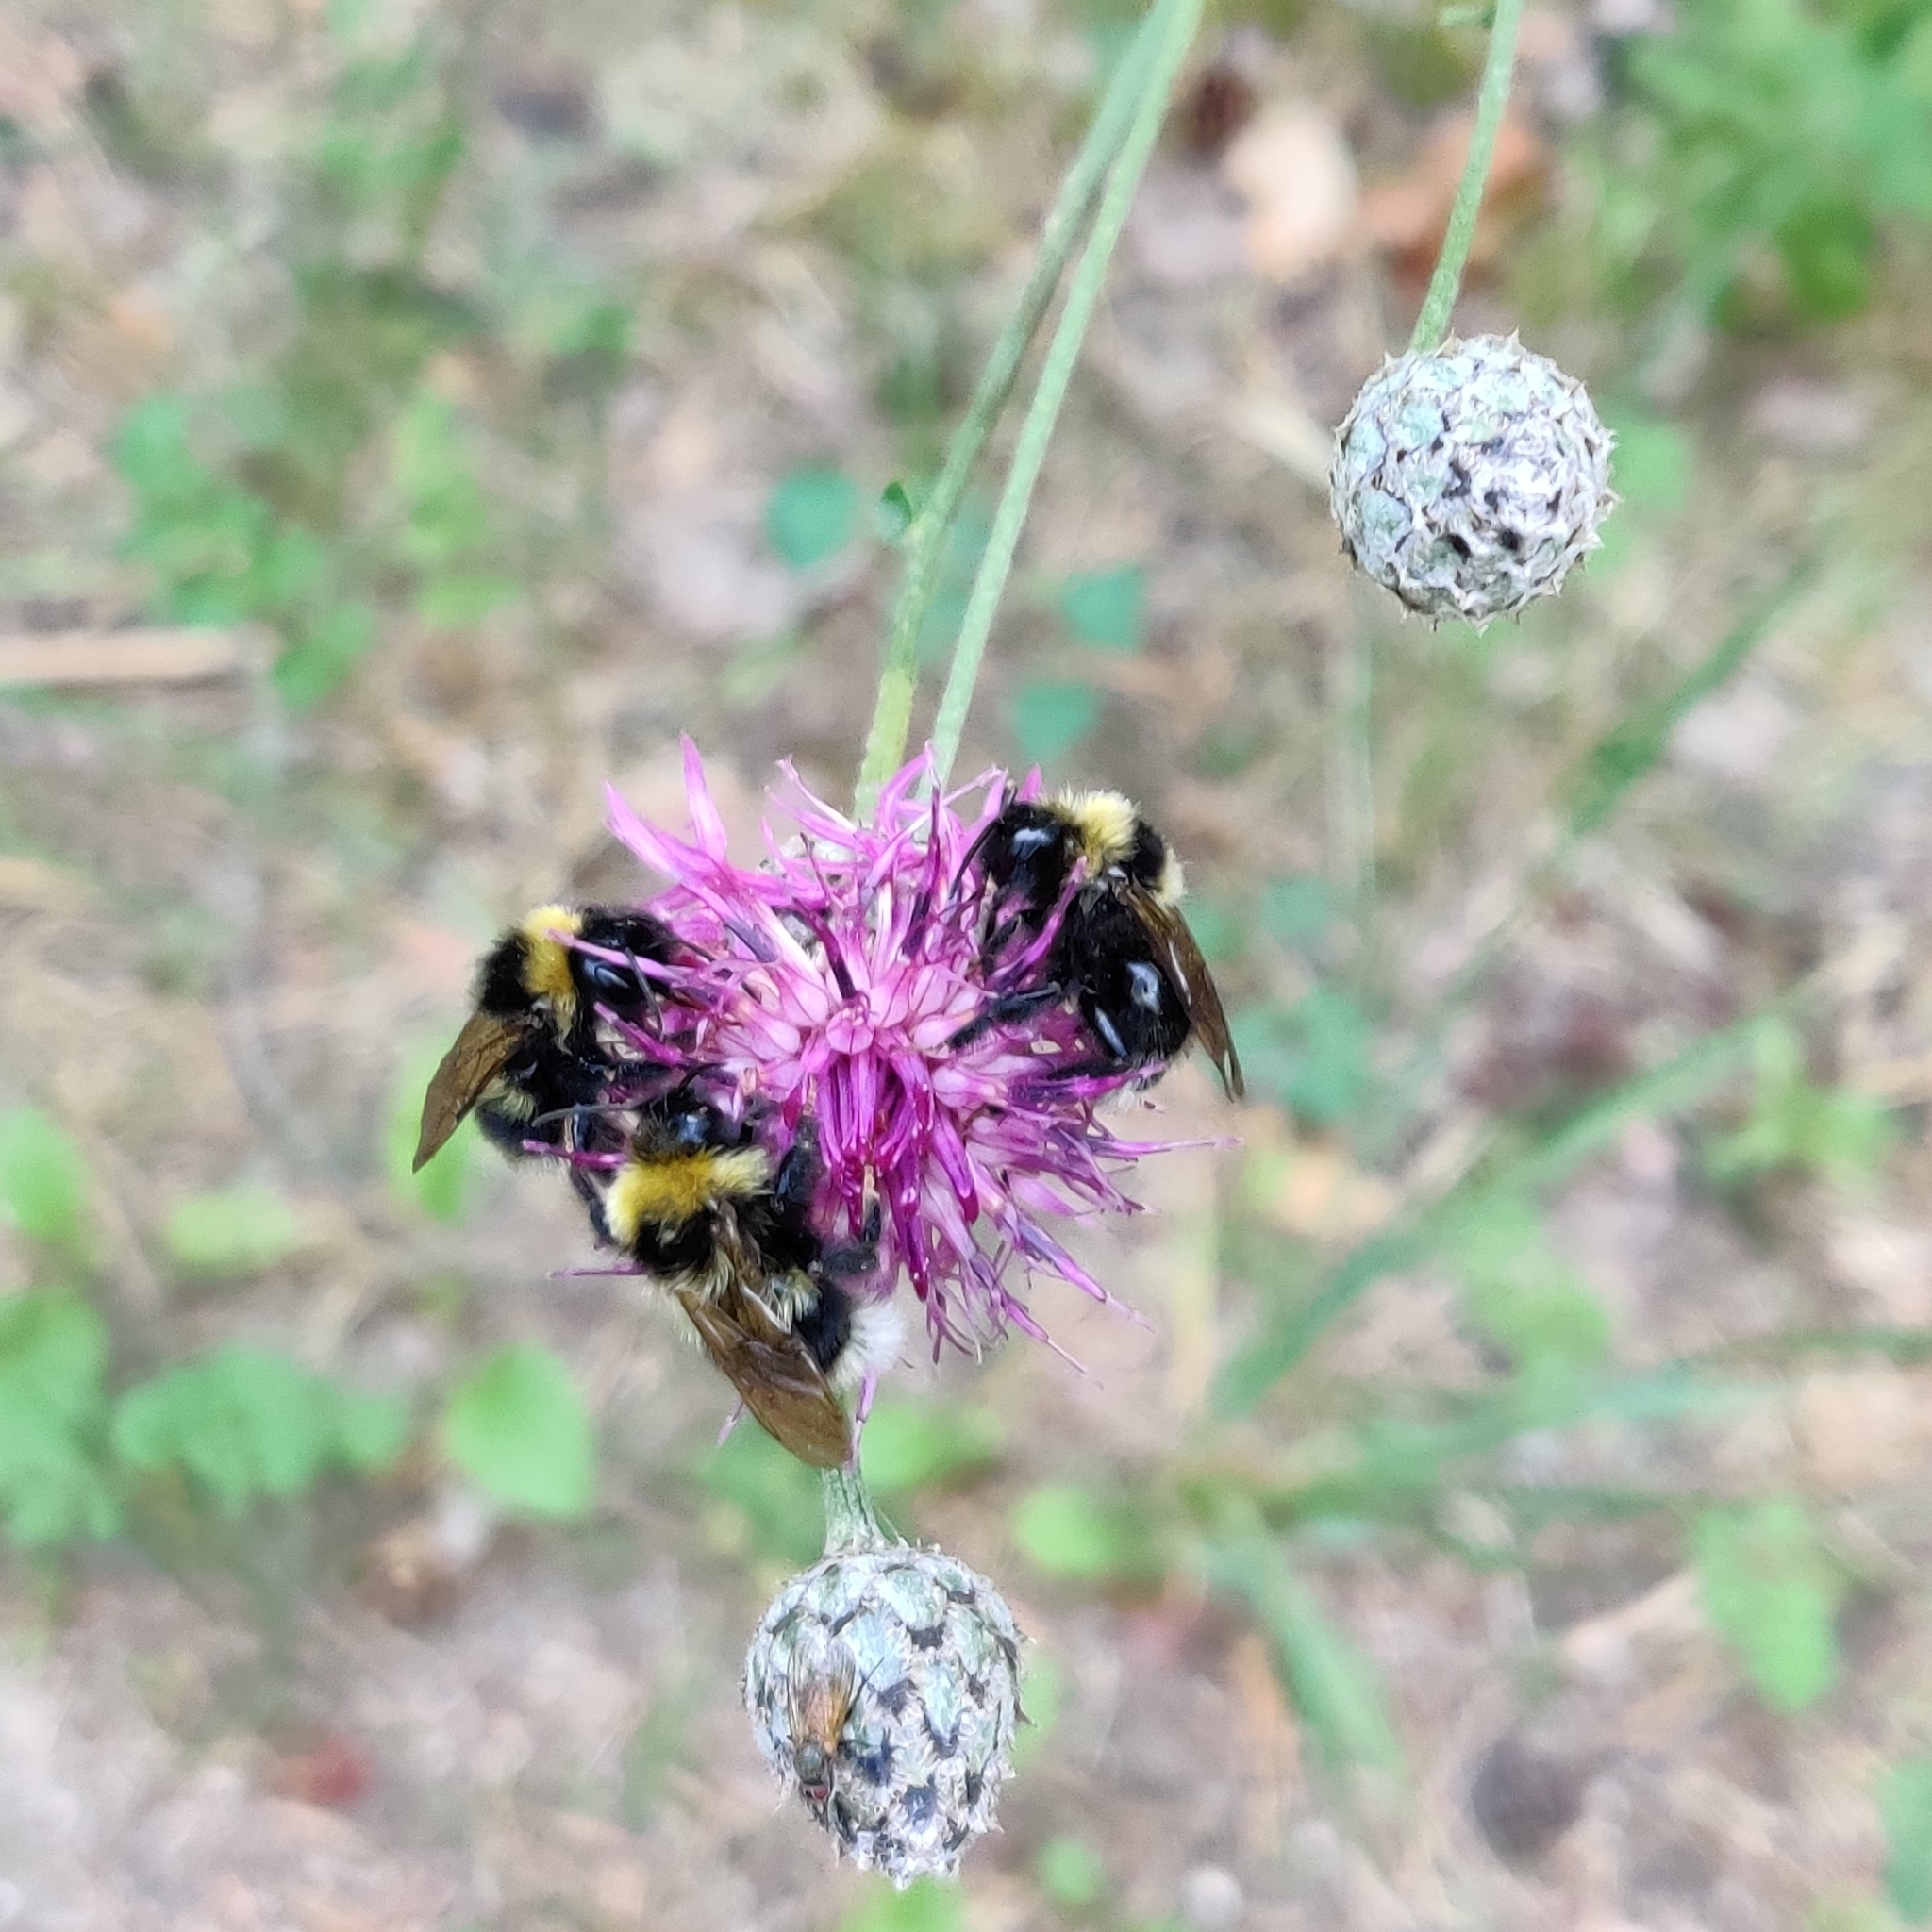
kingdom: Animalia
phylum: Arthropoda
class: Insecta
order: Hymenoptera
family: Apidae
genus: Bombus
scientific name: Bombus bohemicus
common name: Gypsy cuckoo bee
